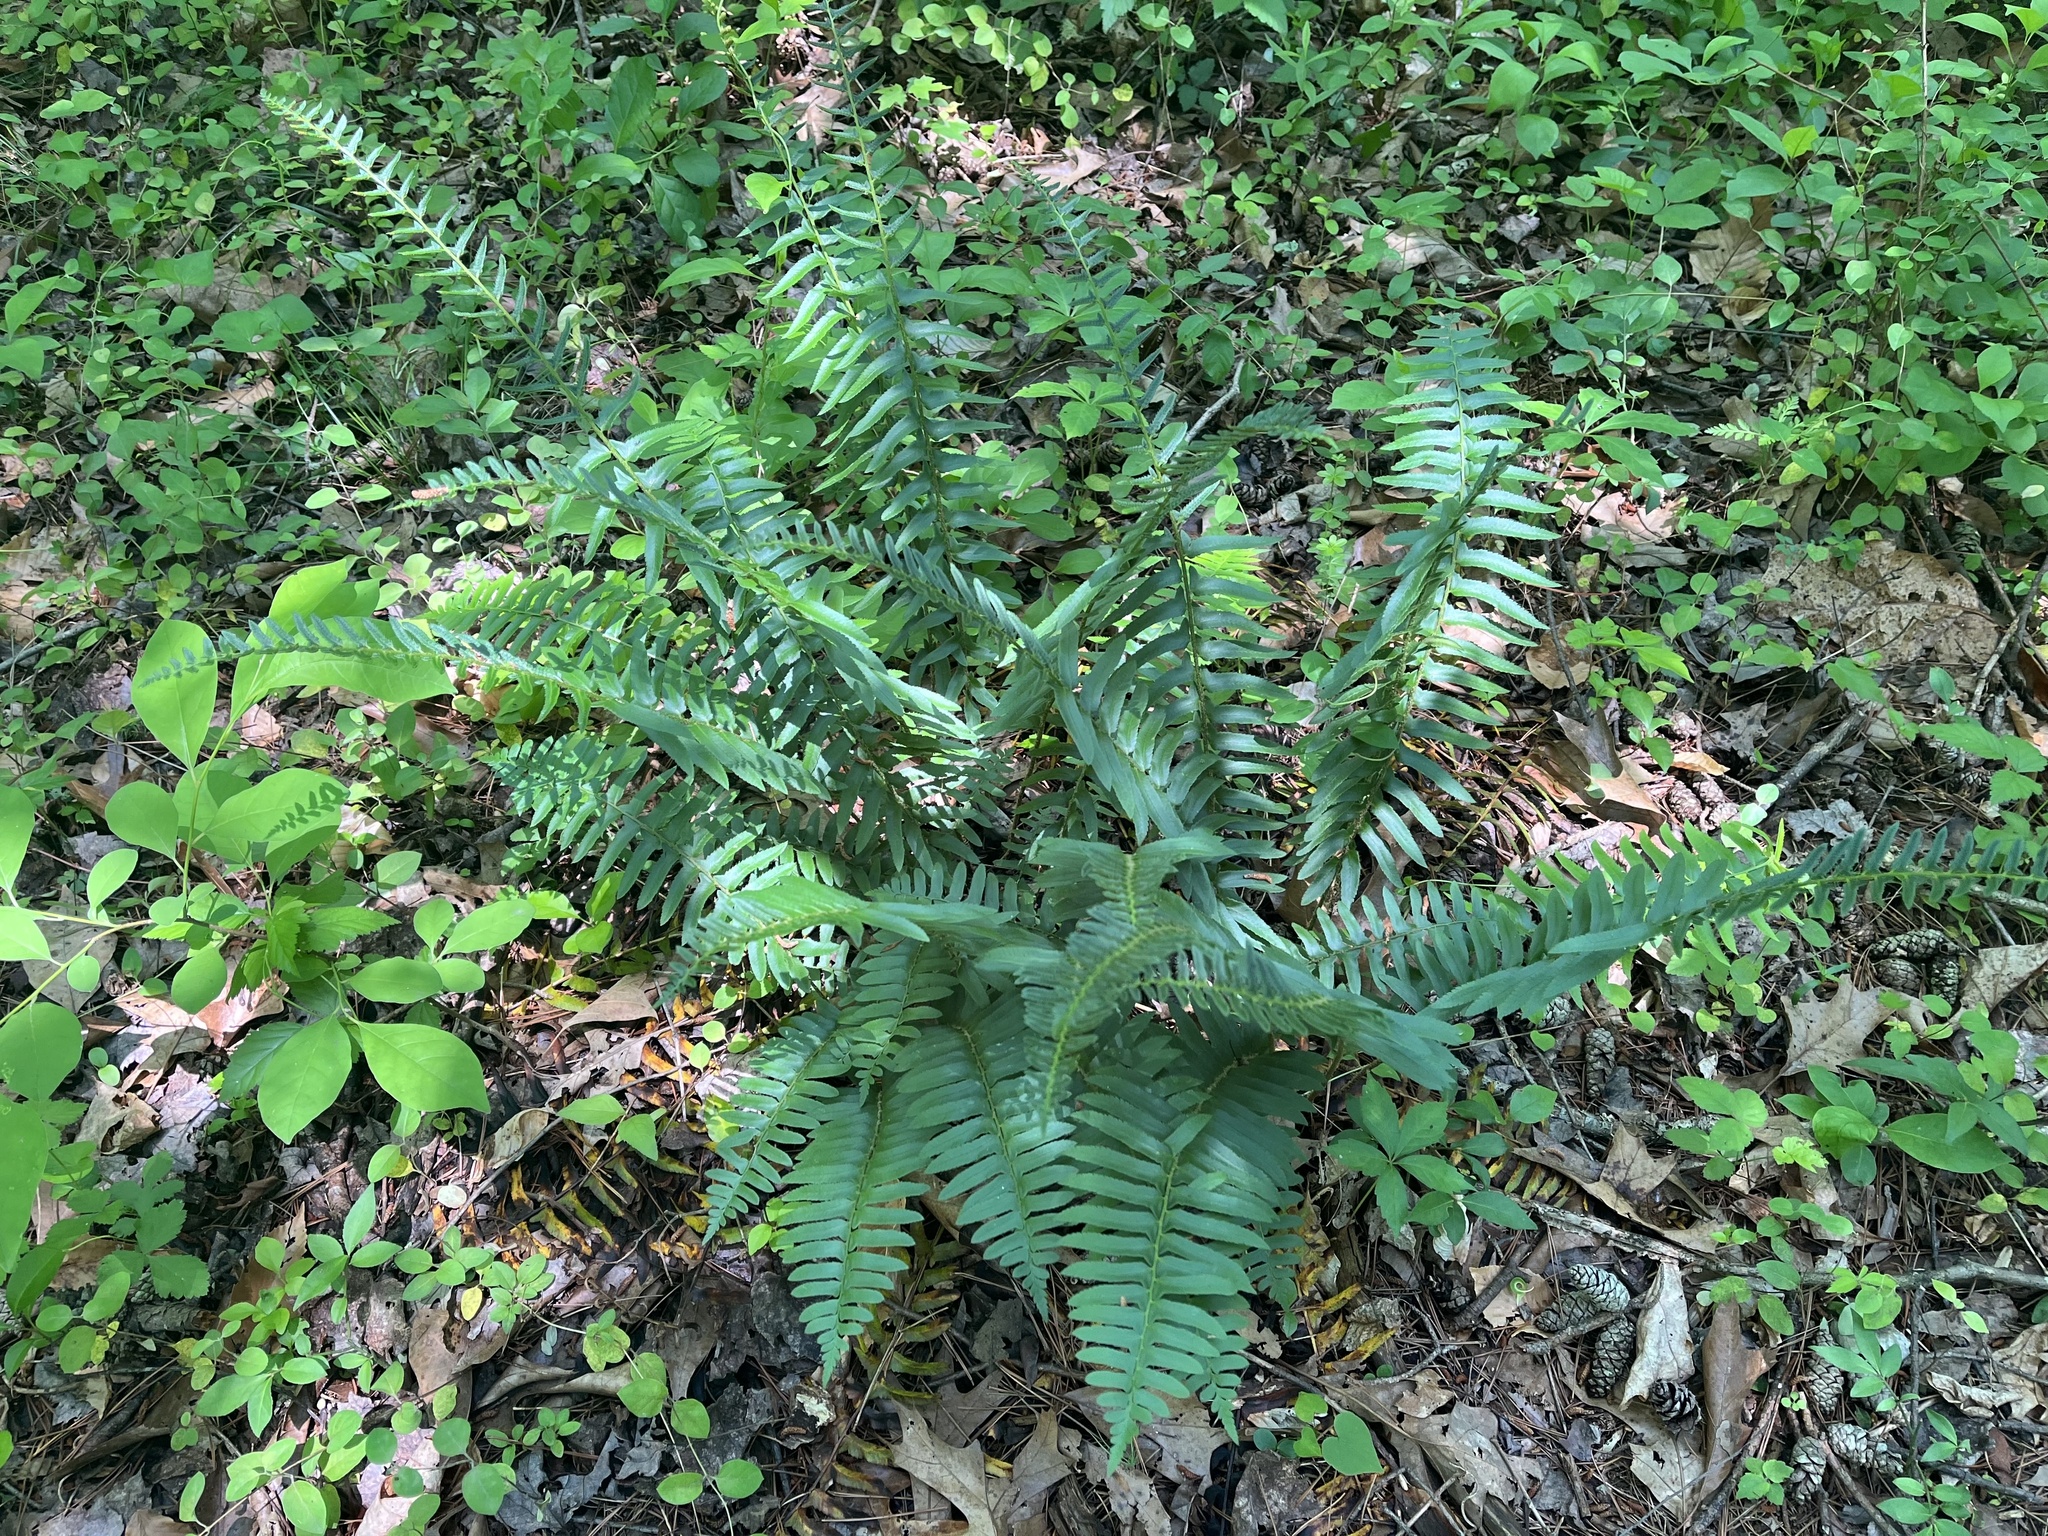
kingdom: Plantae
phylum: Tracheophyta
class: Polypodiopsida
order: Polypodiales
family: Dryopteridaceae
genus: Polystichum
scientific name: Polystichum acrostichoides
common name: Christmas fern
